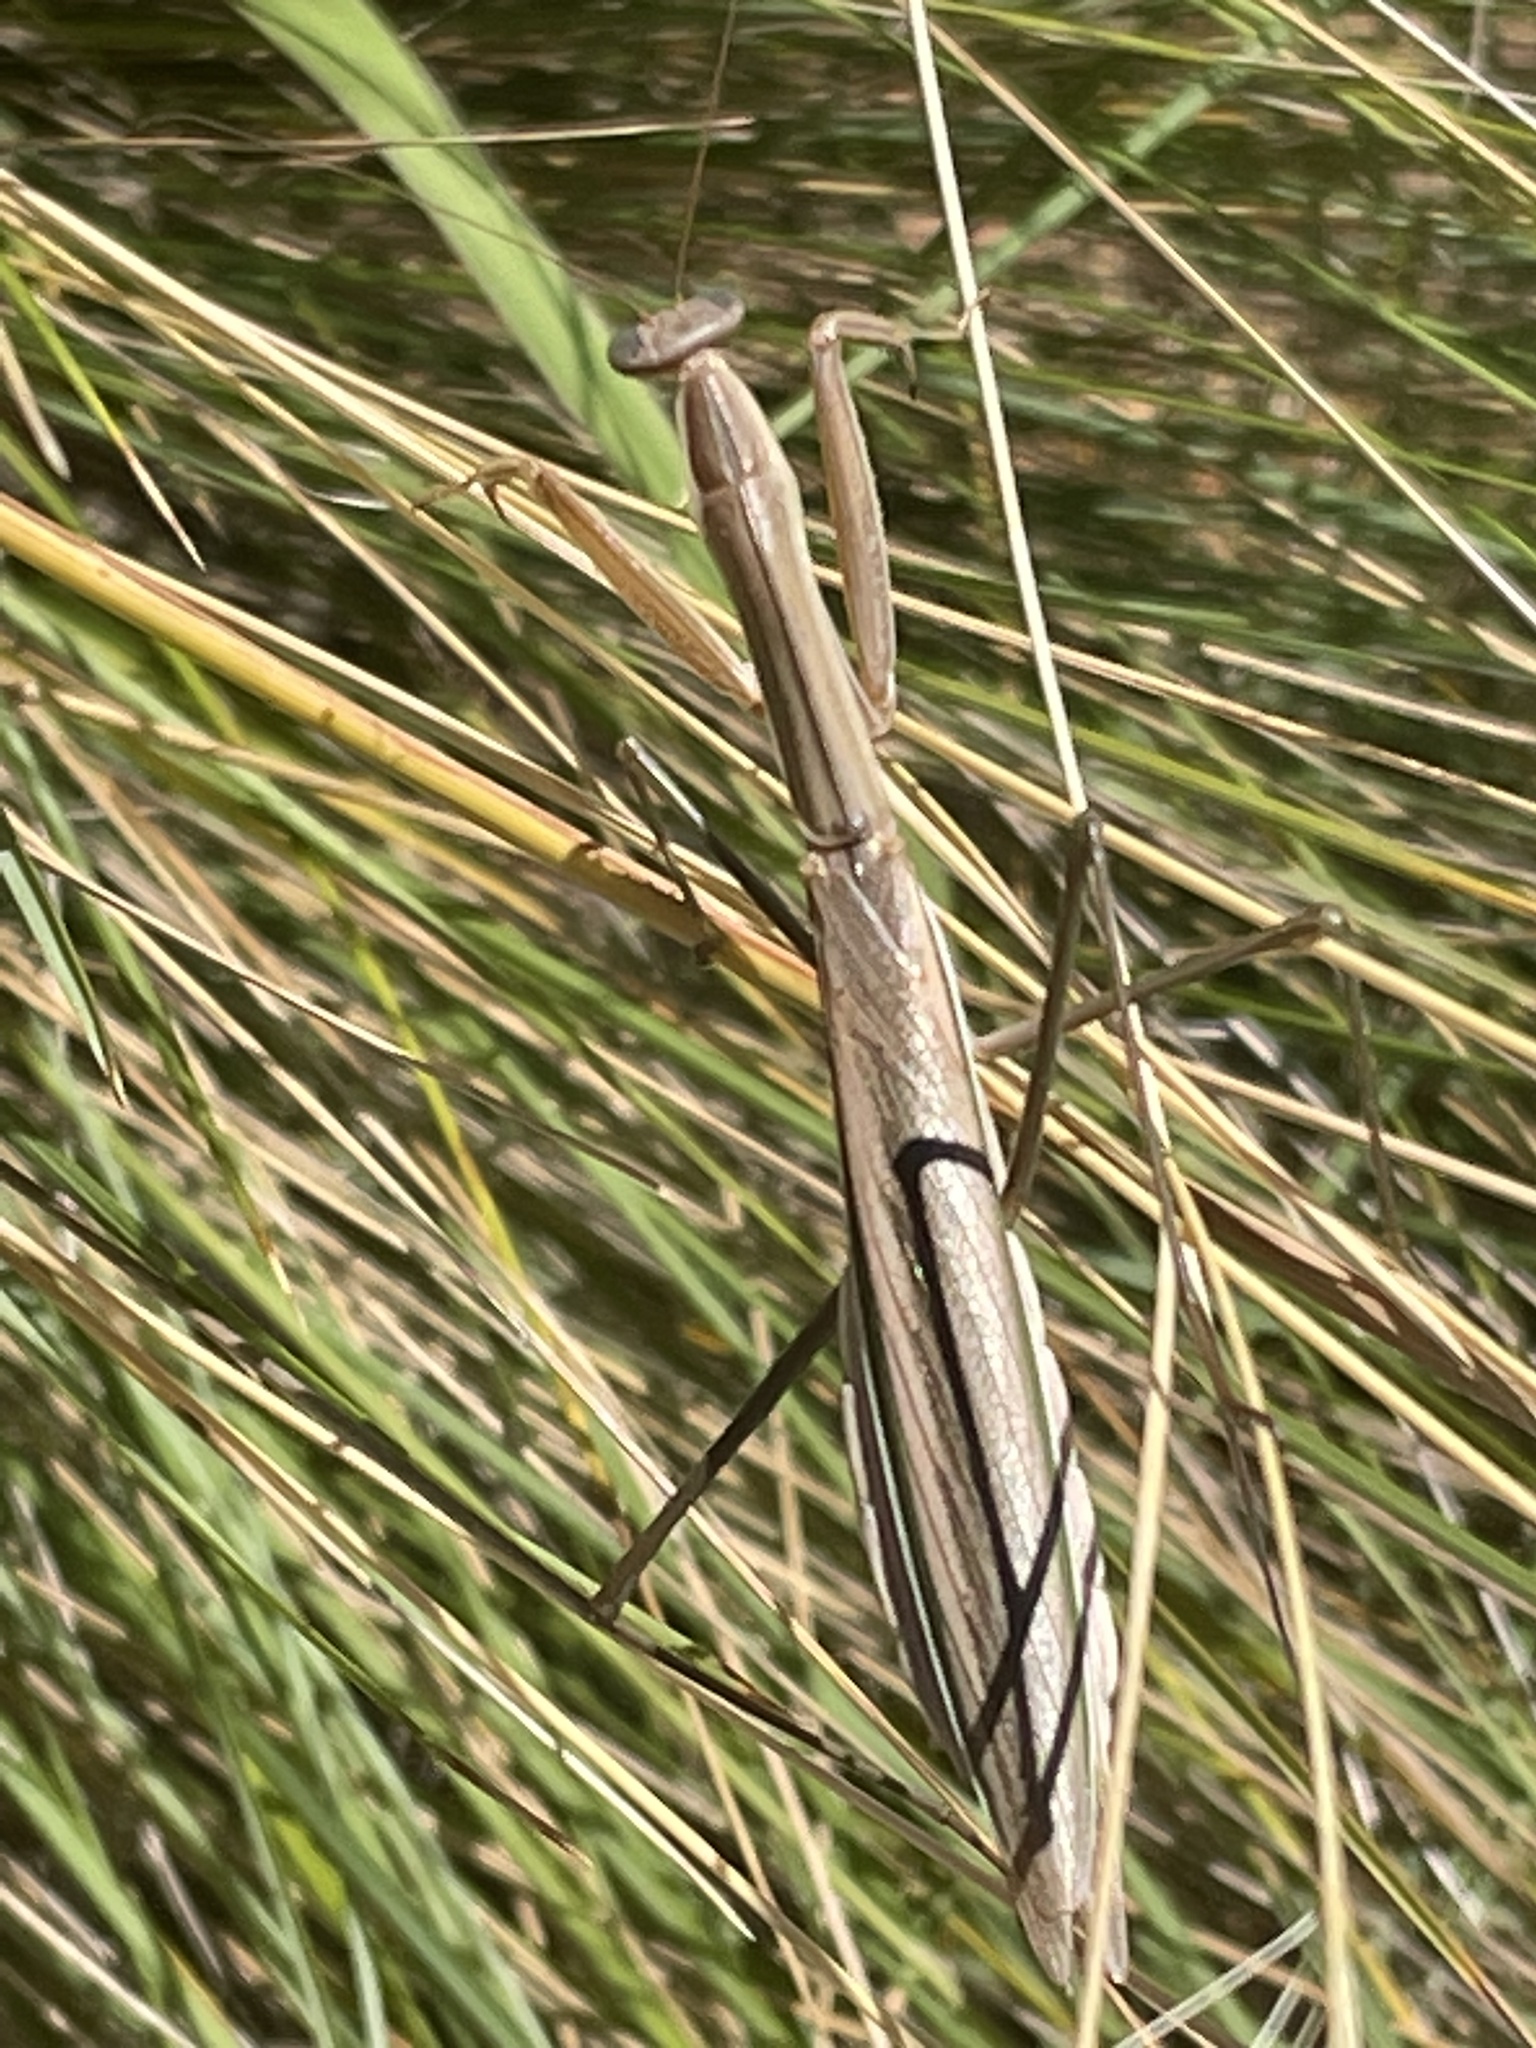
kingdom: Animalia
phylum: Arthropoda
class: Insecta
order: Mantodea
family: Mantidae
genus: Tenodera
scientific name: Tenodera australasiae
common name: Purple-winged mantis
